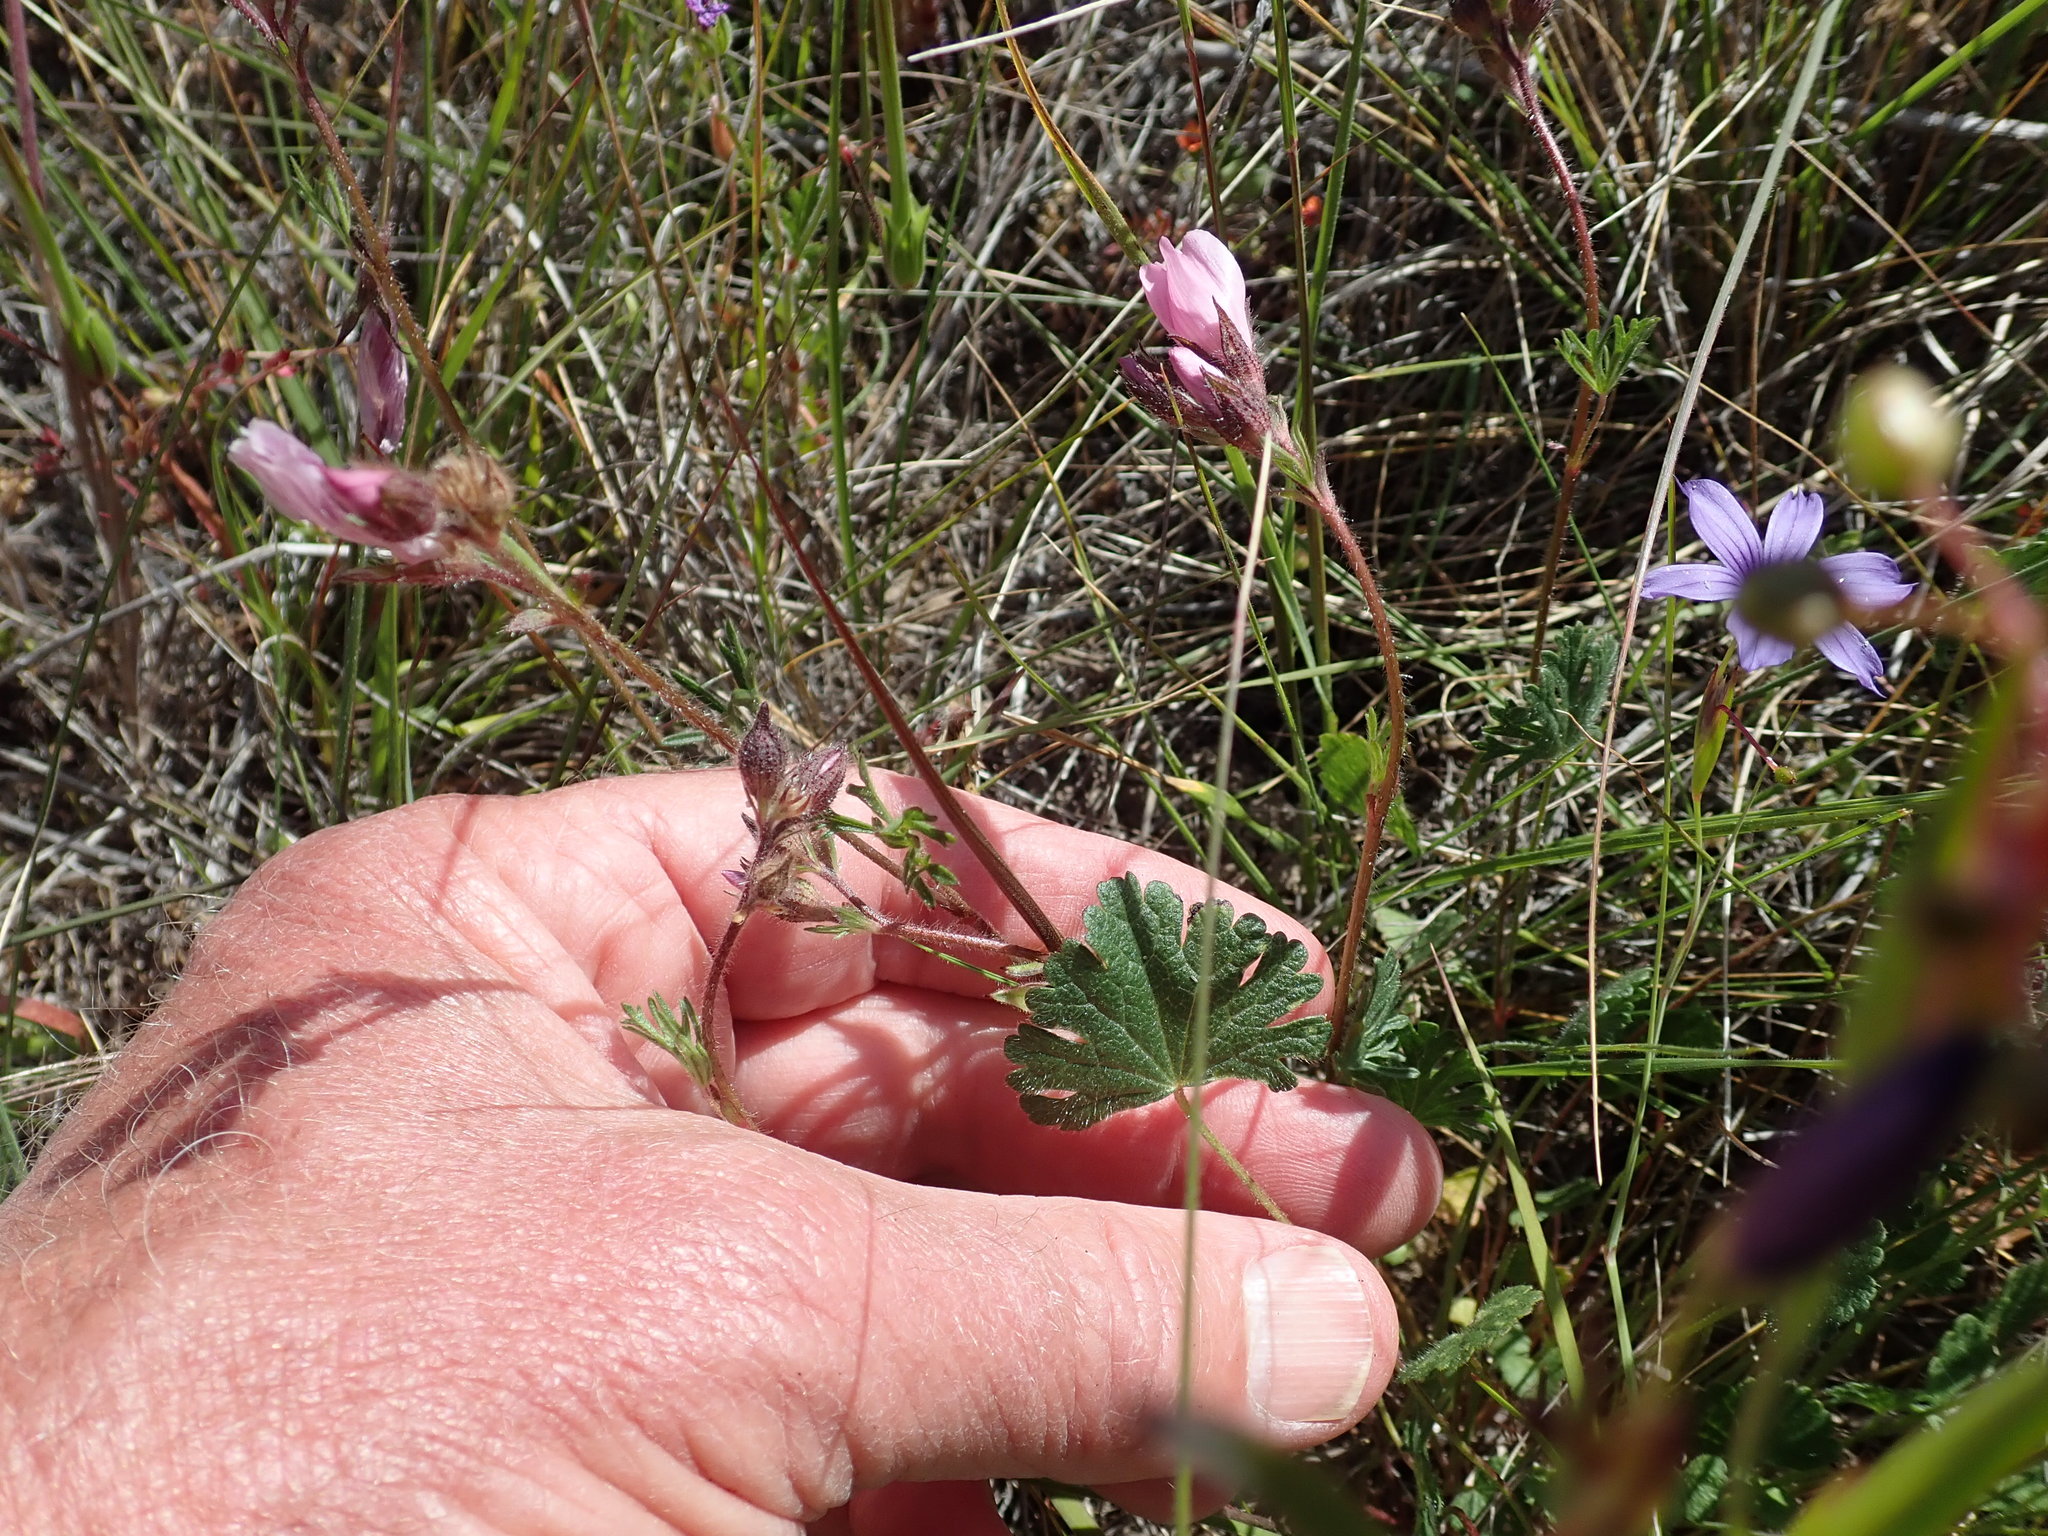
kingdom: Plantae
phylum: Tracheophyta
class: Magnoliopsida
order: Malvales
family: Malvaceae
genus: Sidalcea
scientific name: Sidalcea malviflora
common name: Greek mallow
